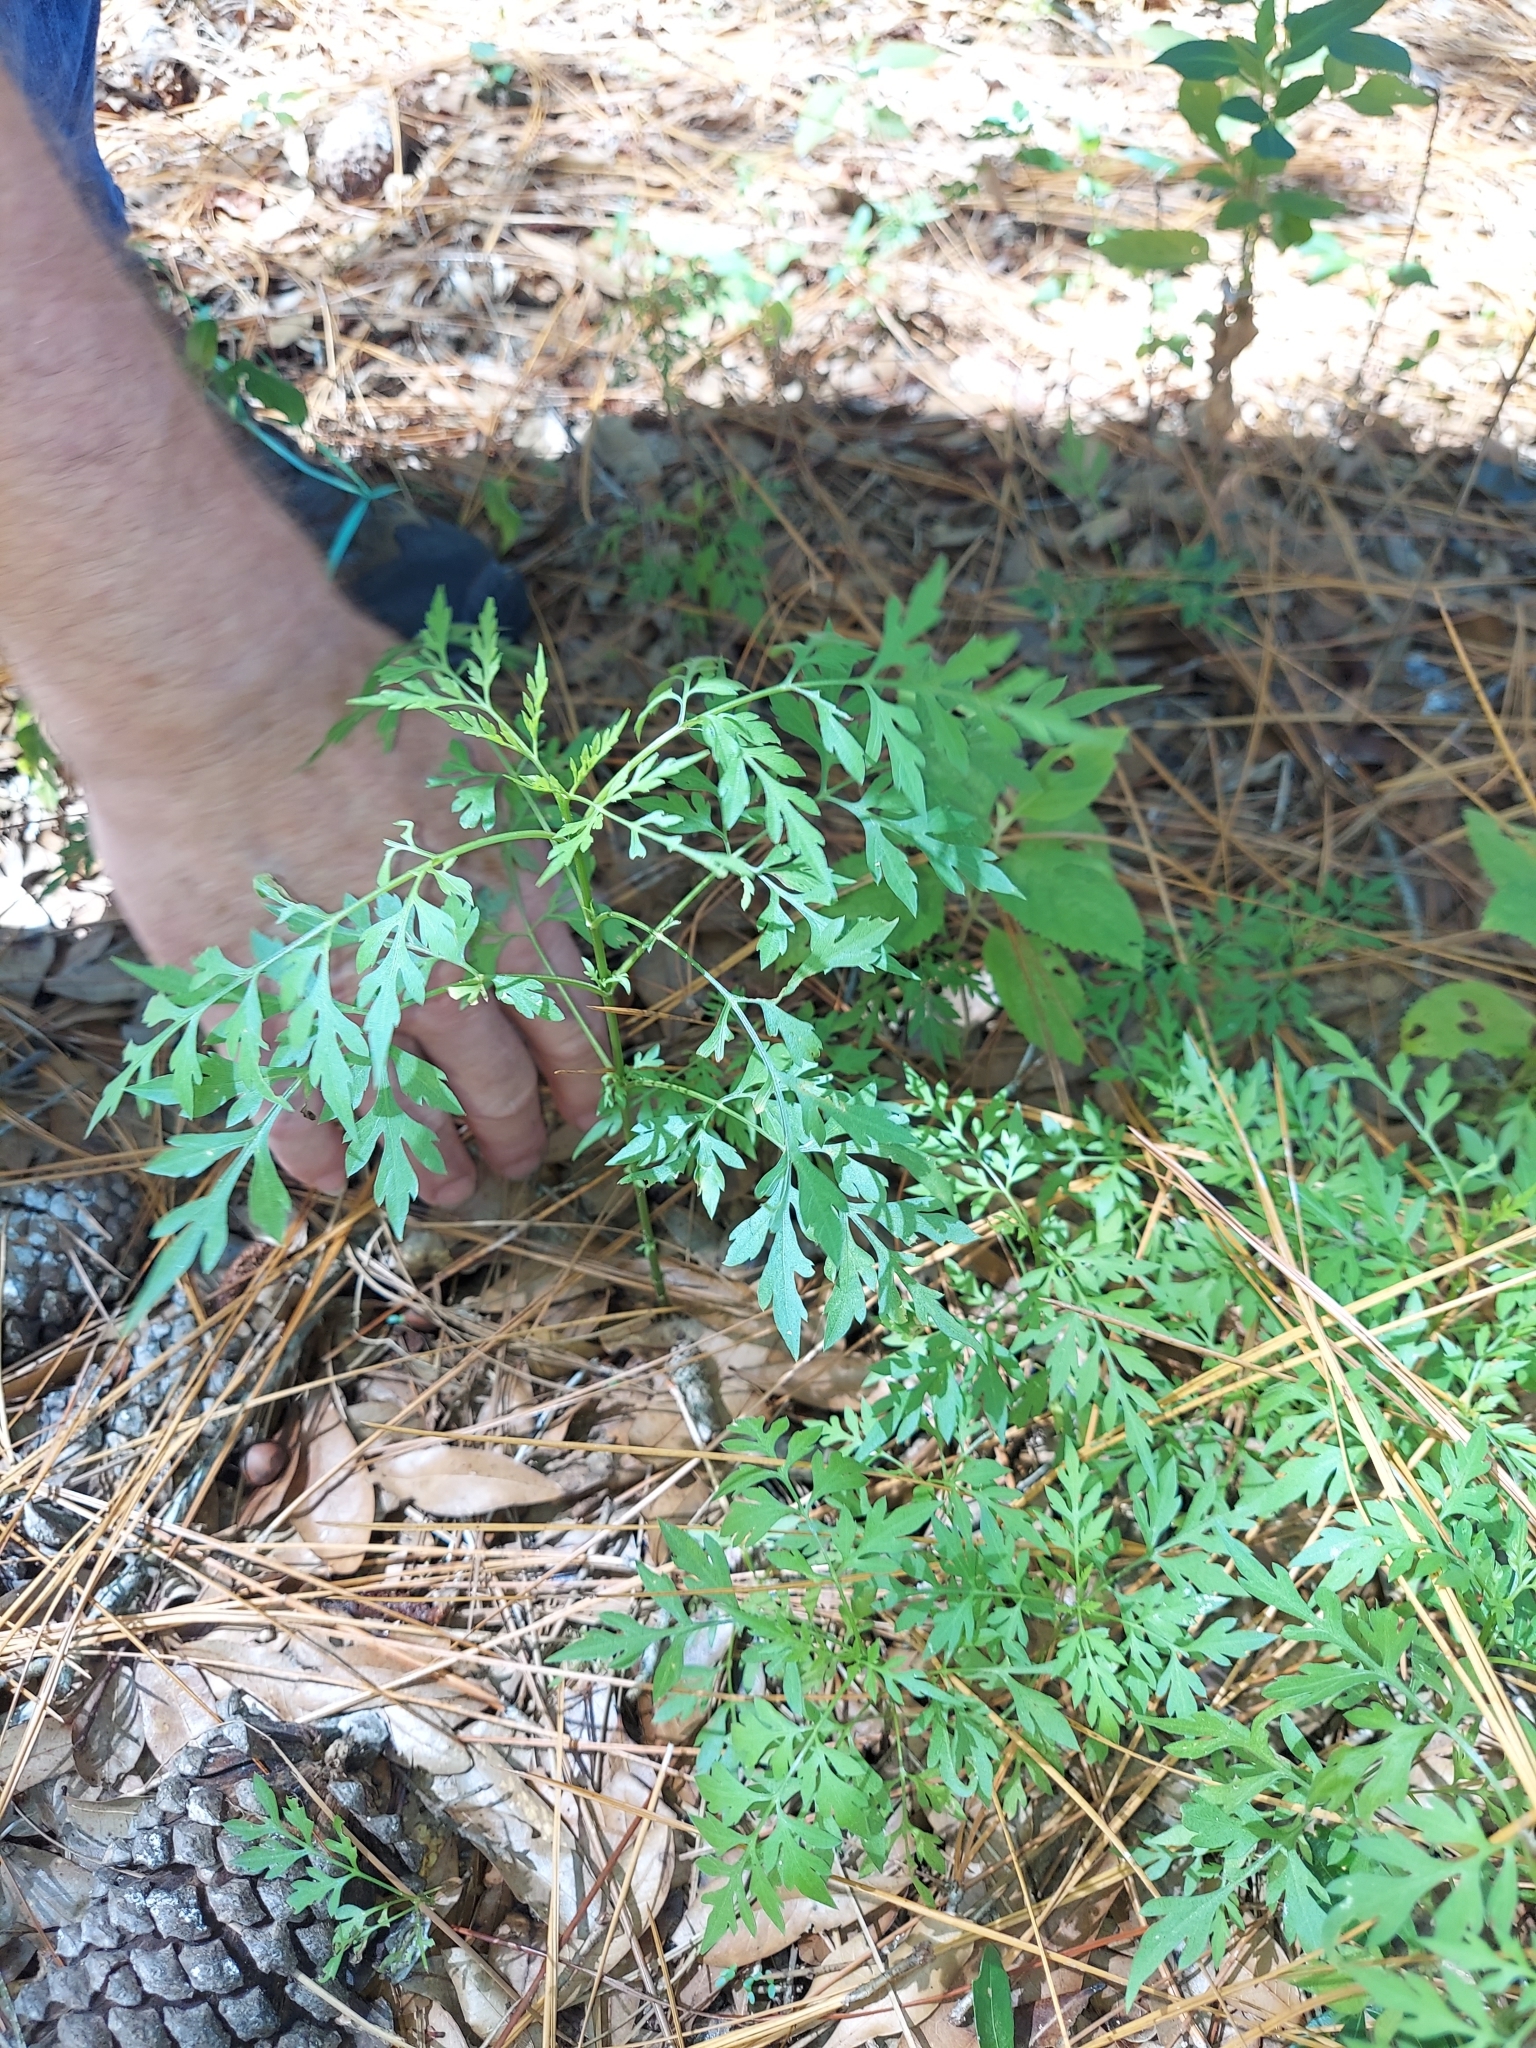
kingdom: Plantae
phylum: Tracheophyta
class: Magnoliopsida
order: Asterales
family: Asteraceae
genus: Bidens
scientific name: Bidens bipinnata
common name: Spanish-needles
